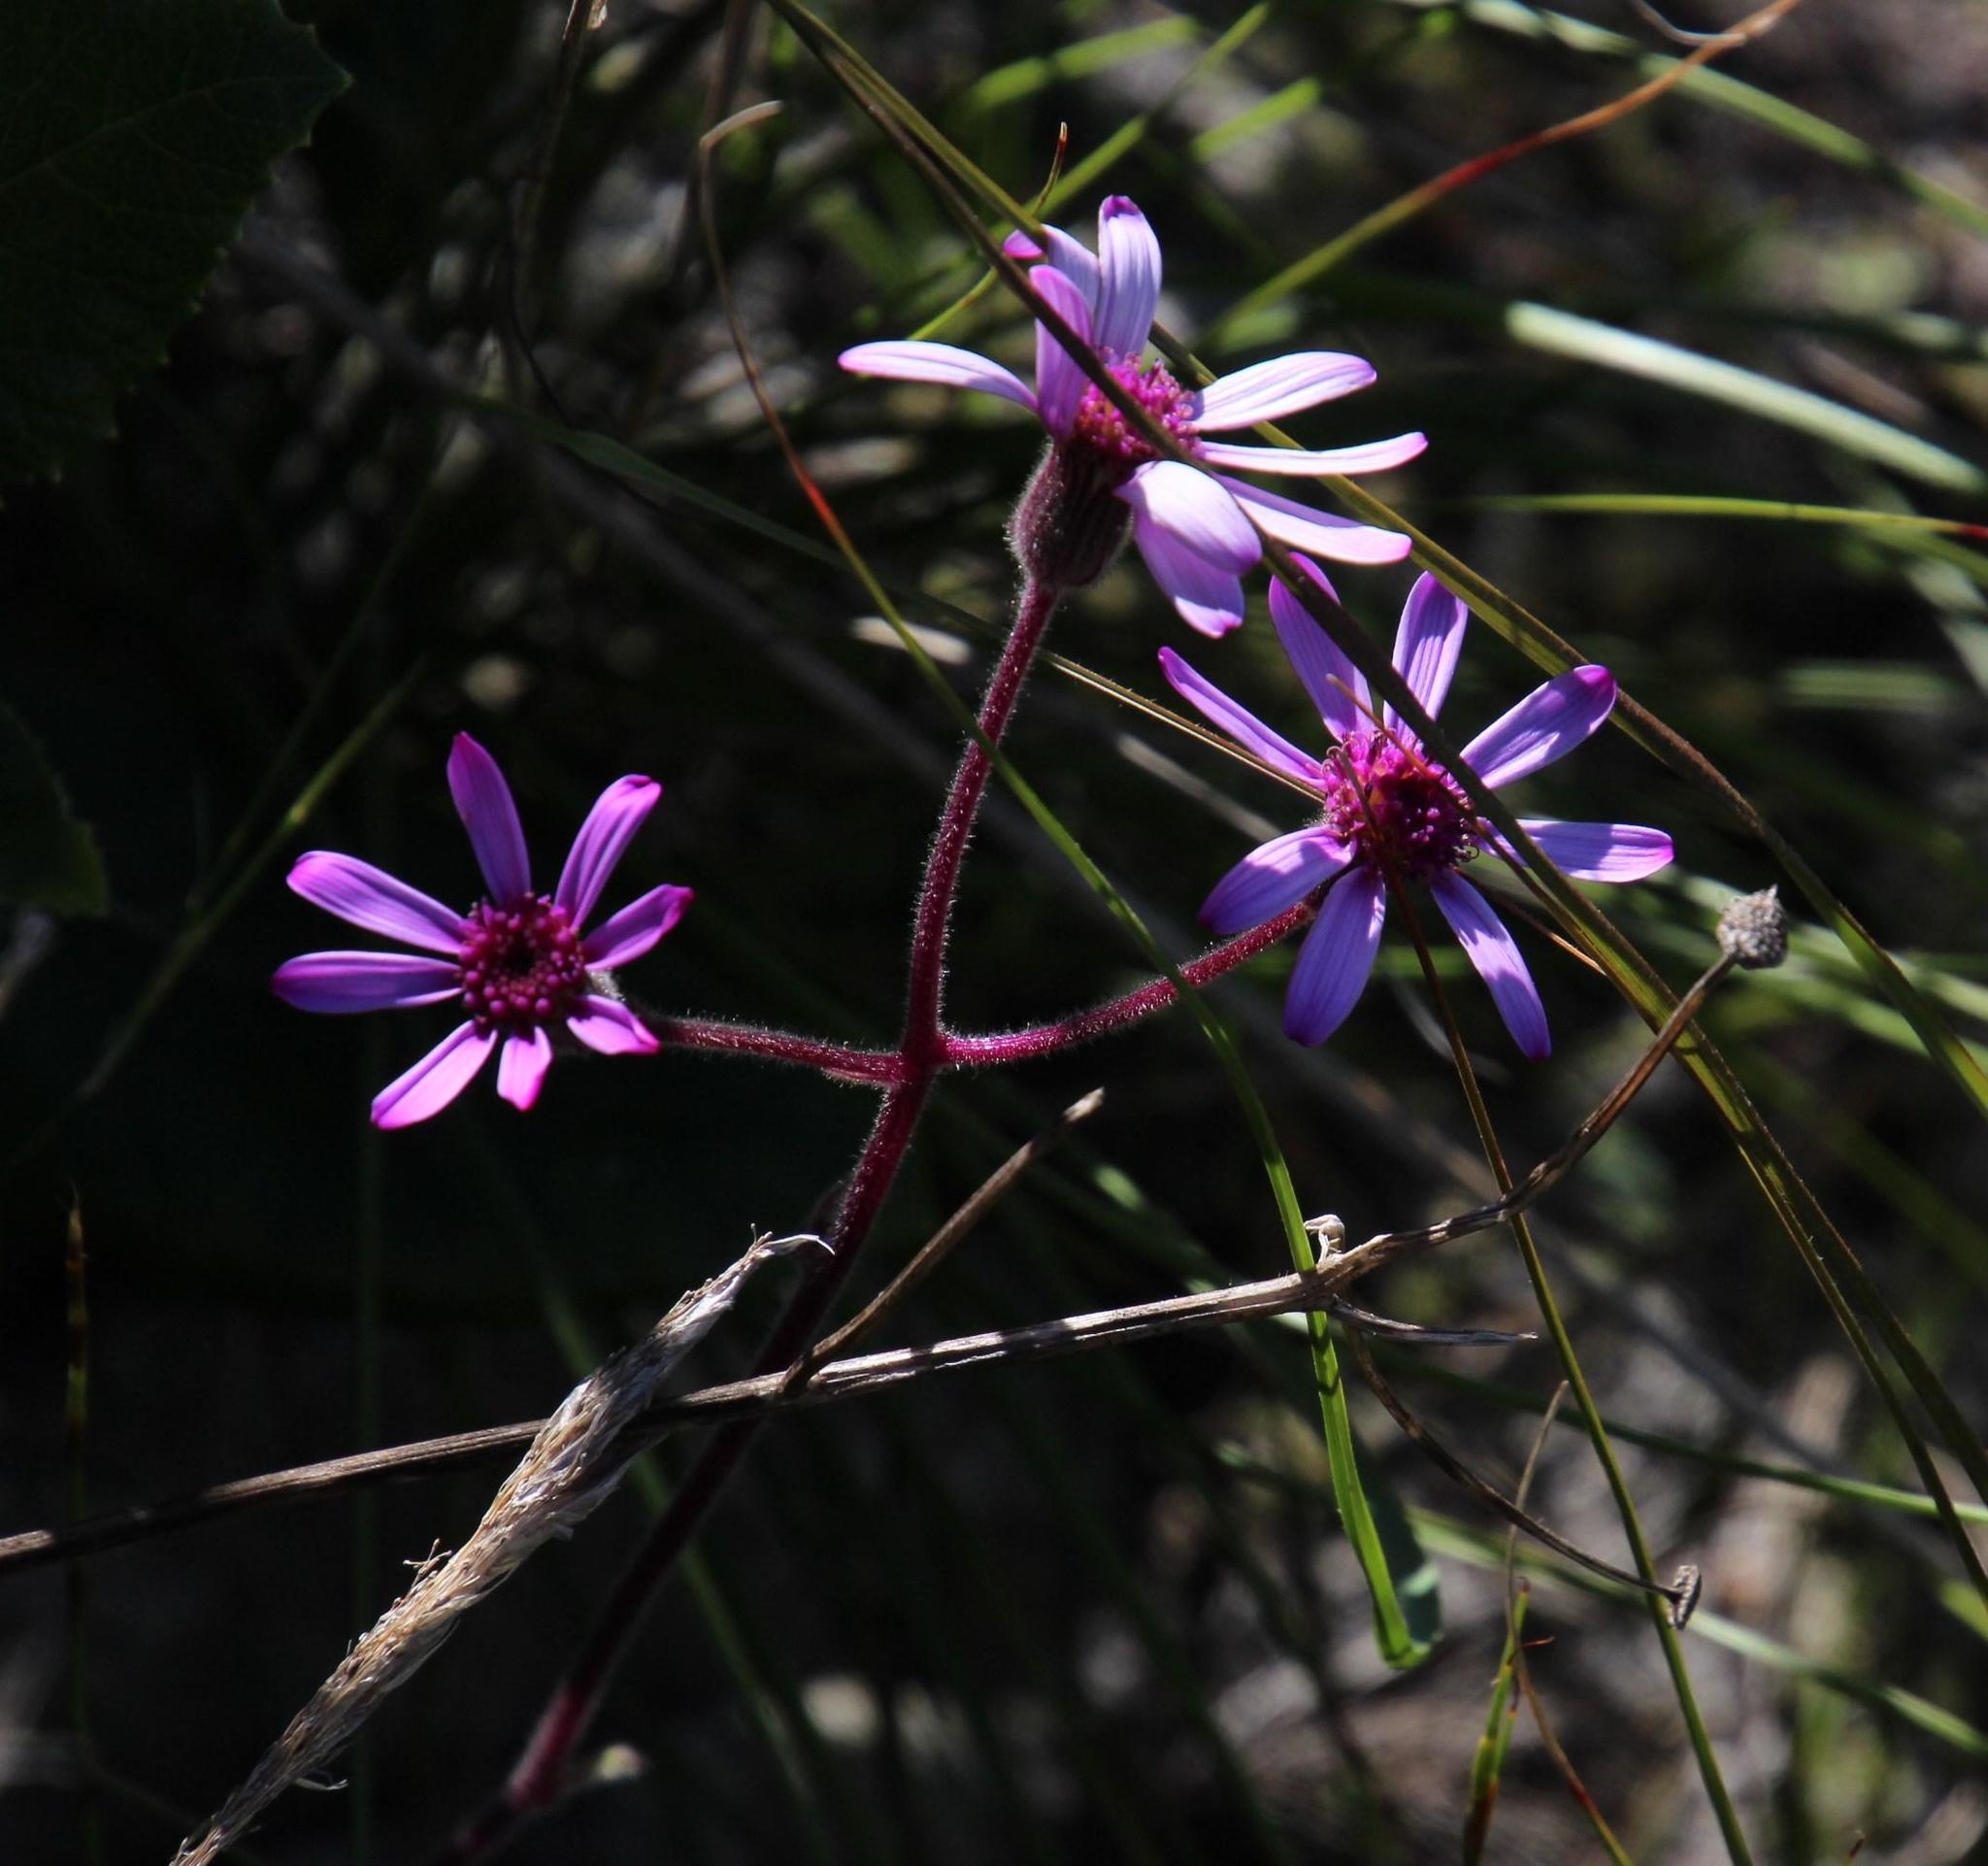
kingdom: Plantae
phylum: Tracheophyta
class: Magnoliopsida
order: Asterales
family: Asteraceae
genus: Senecio
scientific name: Senecio speciosus
